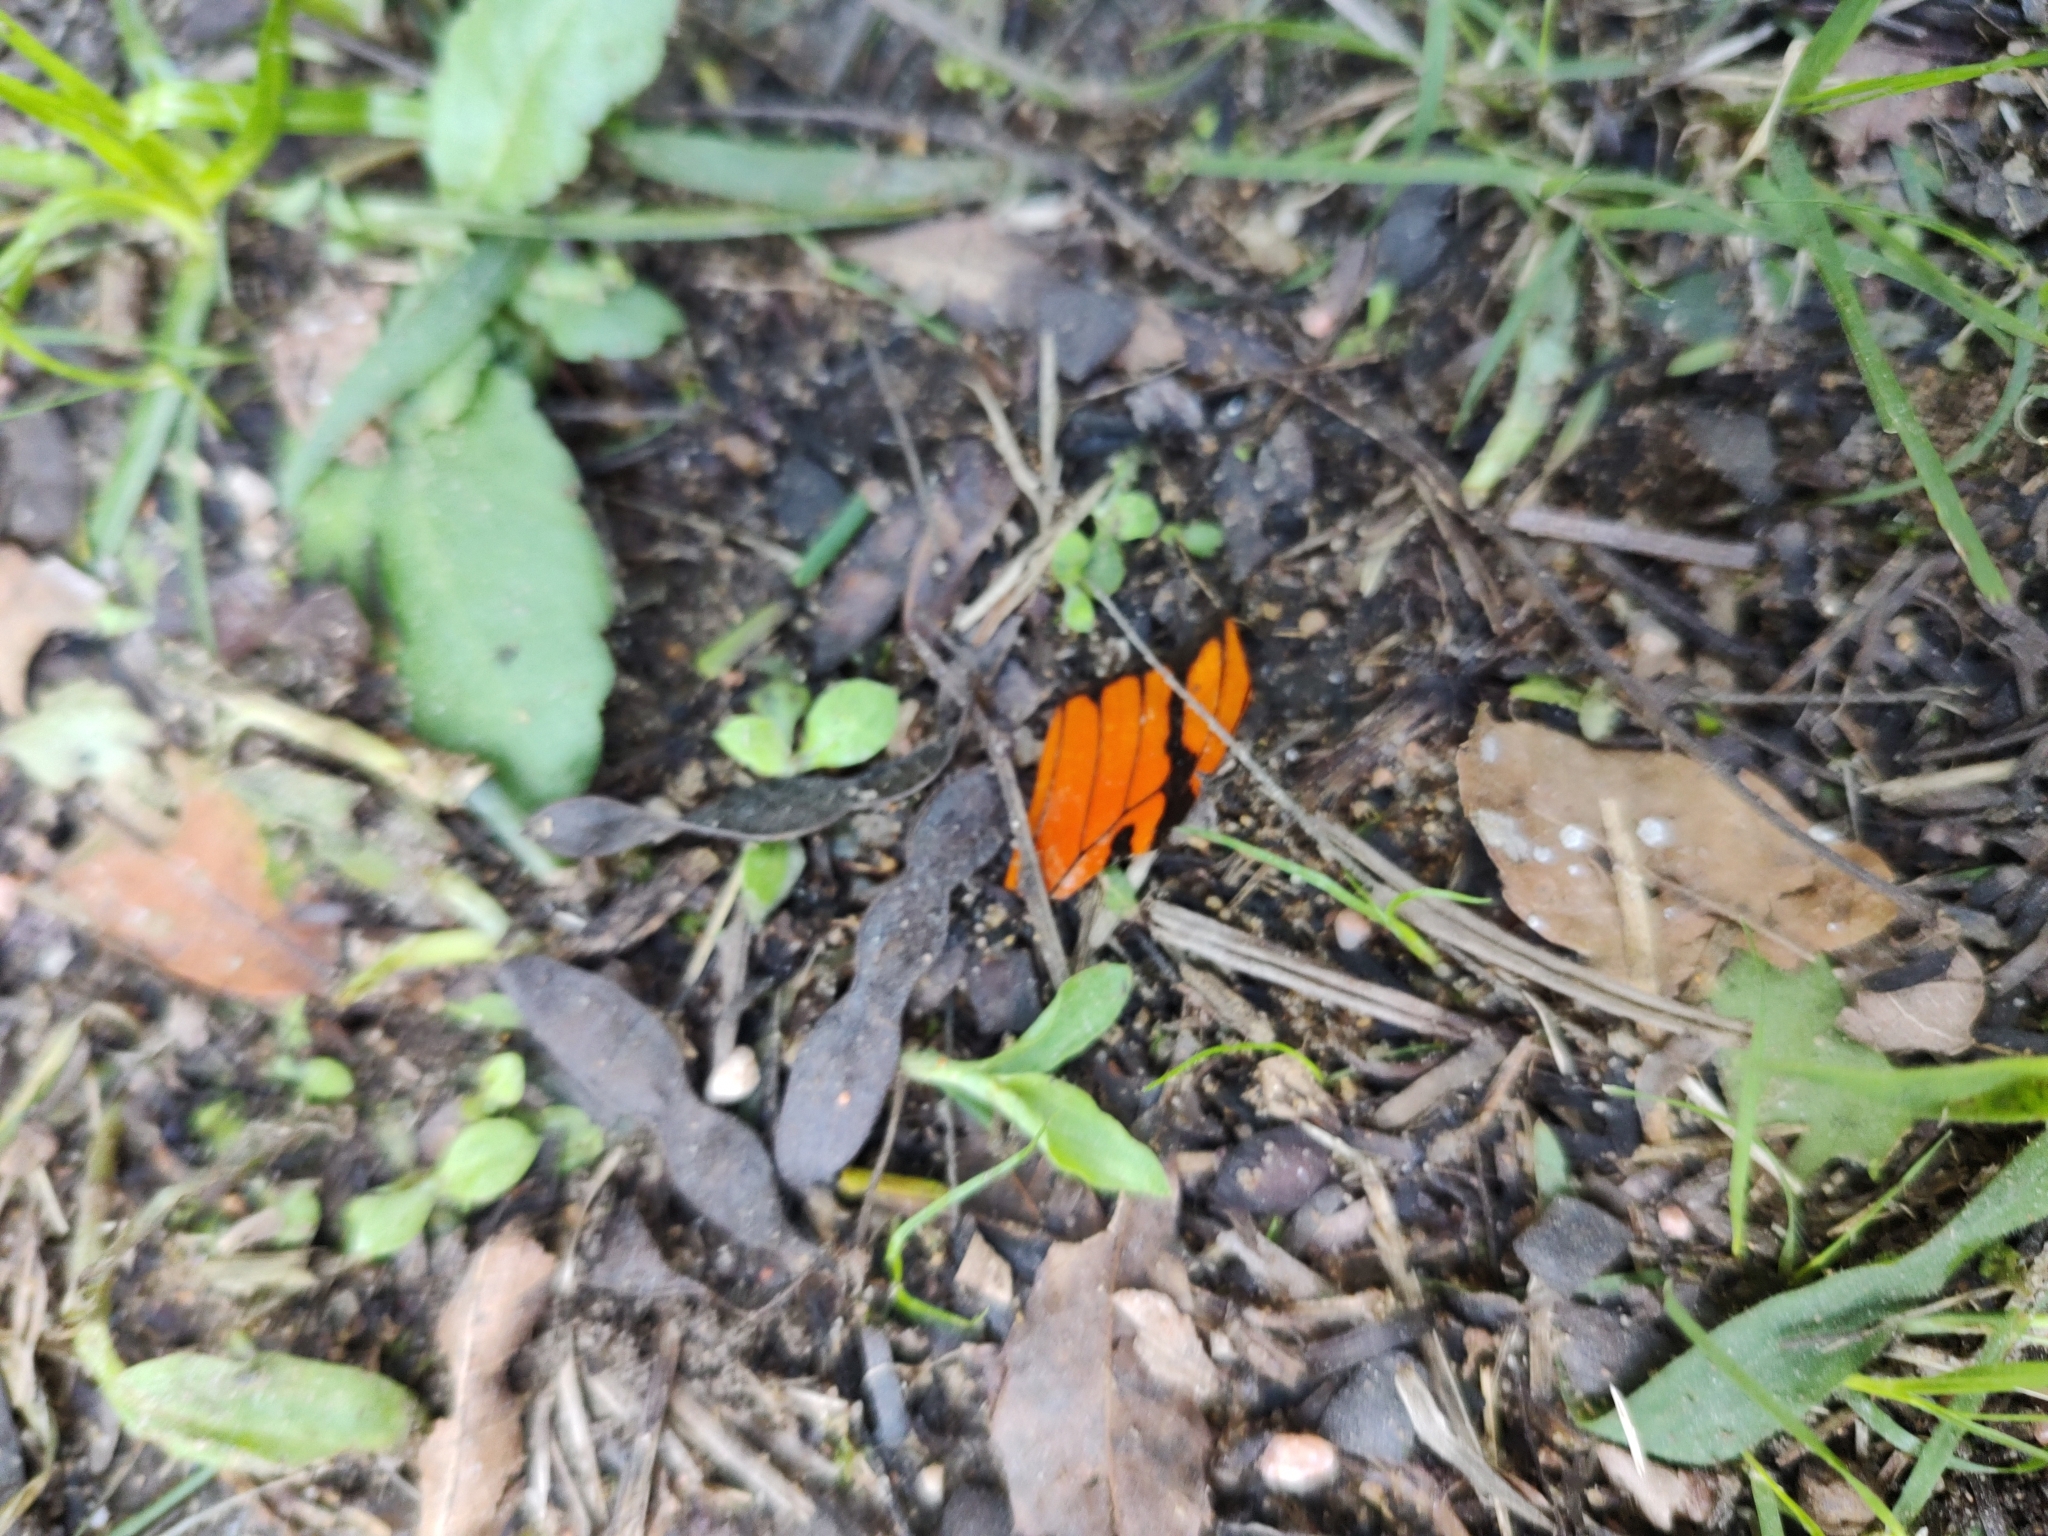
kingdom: Animalia
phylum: Arthropoda
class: Insecta
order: Lepidoptera
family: Nymphalidae
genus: Dione
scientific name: Dione juno
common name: Juno silverspot
